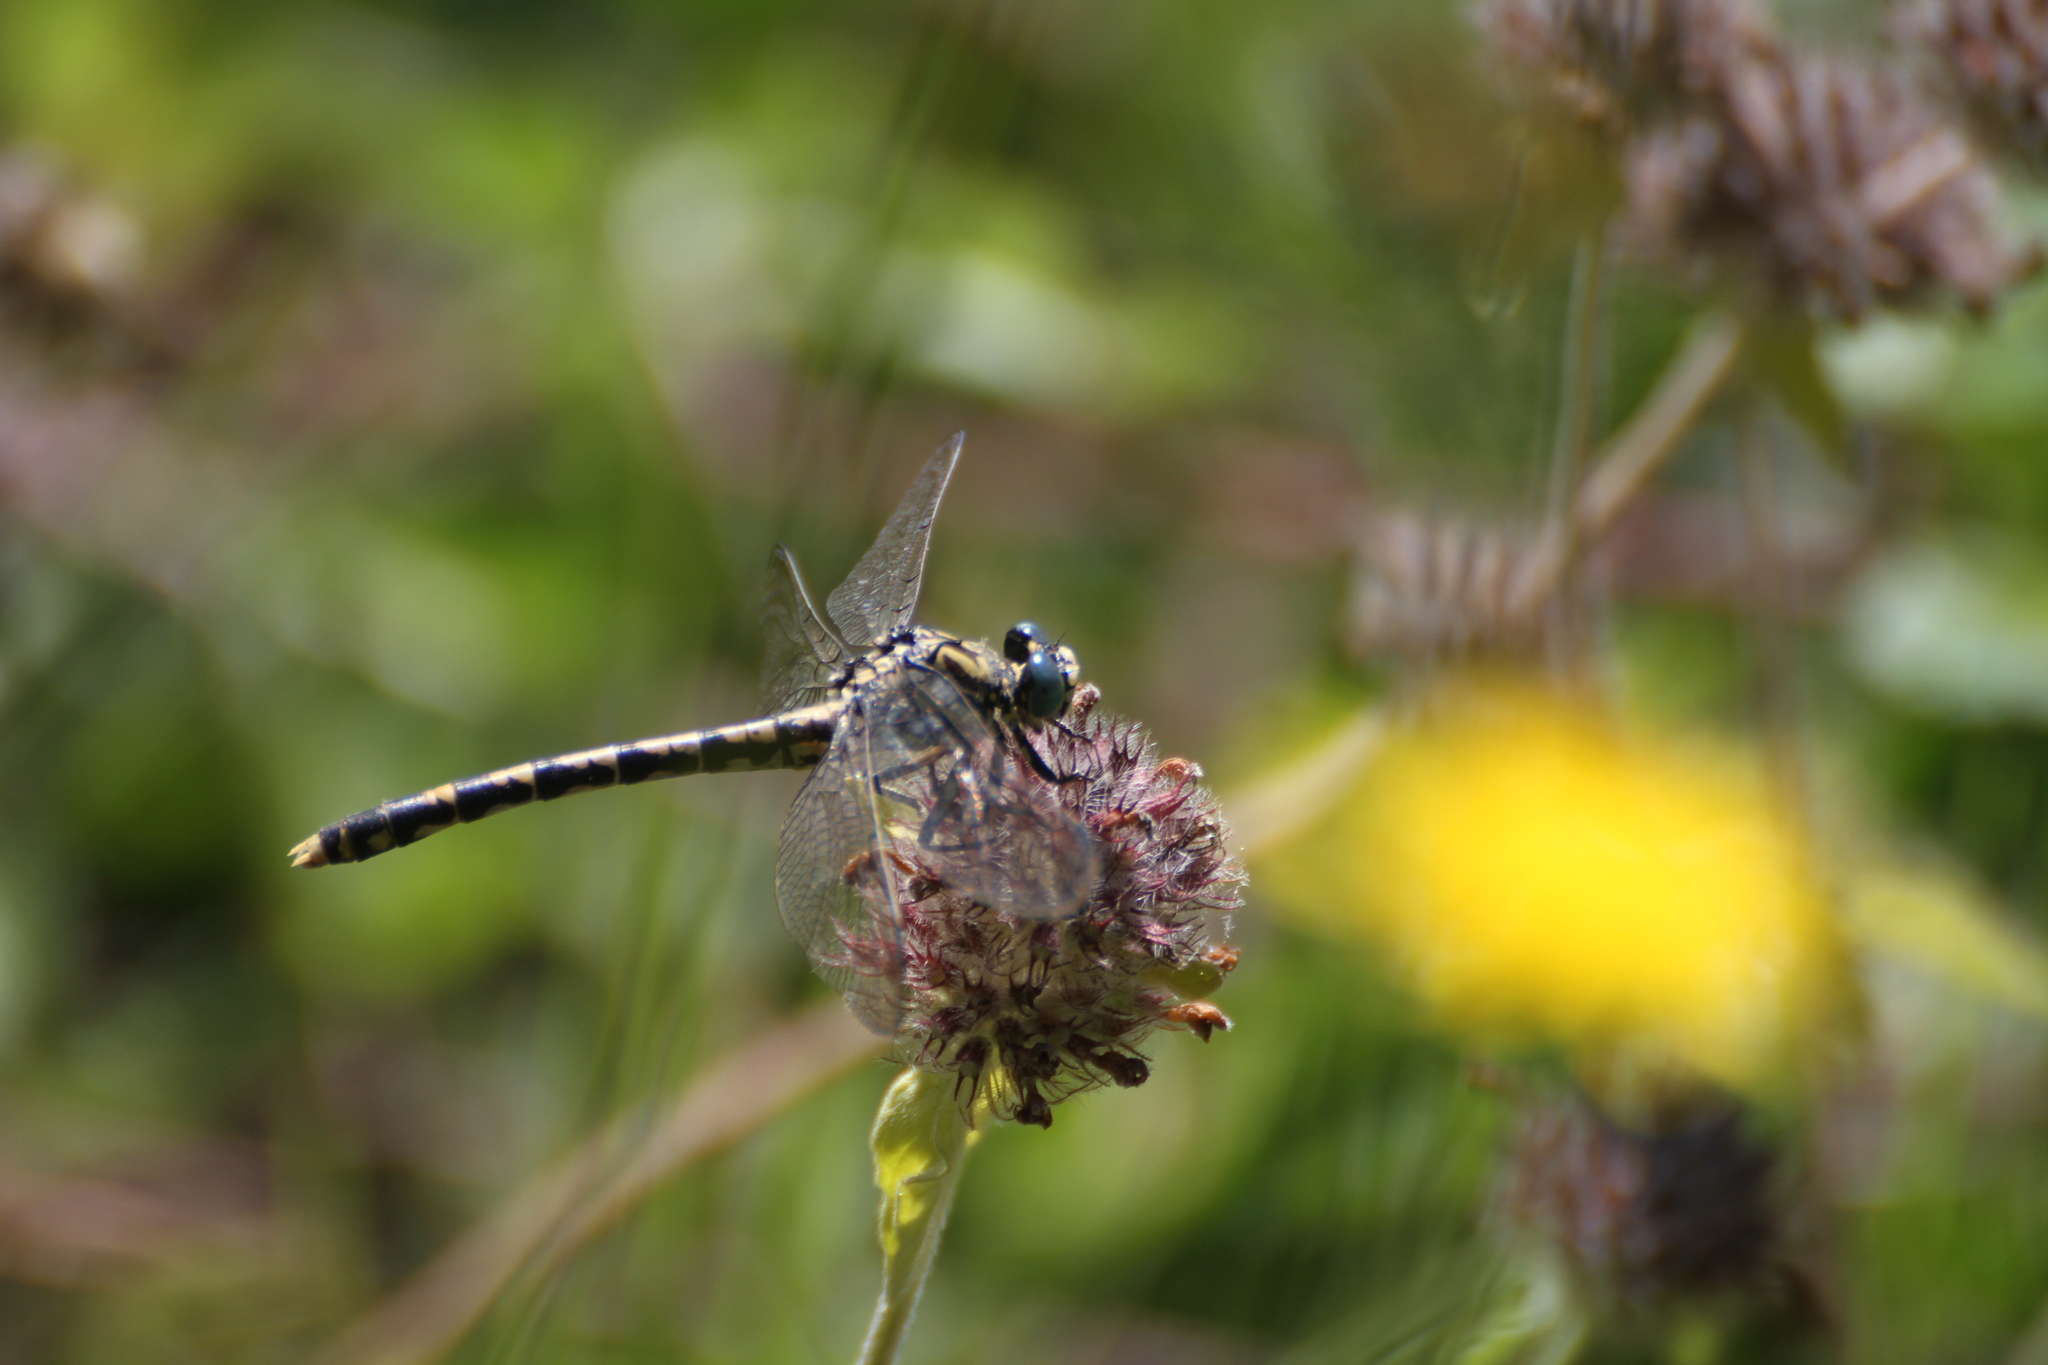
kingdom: Animalia
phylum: Arthropoda
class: Insecta
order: Odonata
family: Gomphidae
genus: Onychogomphus
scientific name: Onychogomphus uncatus
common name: Large pincertail
